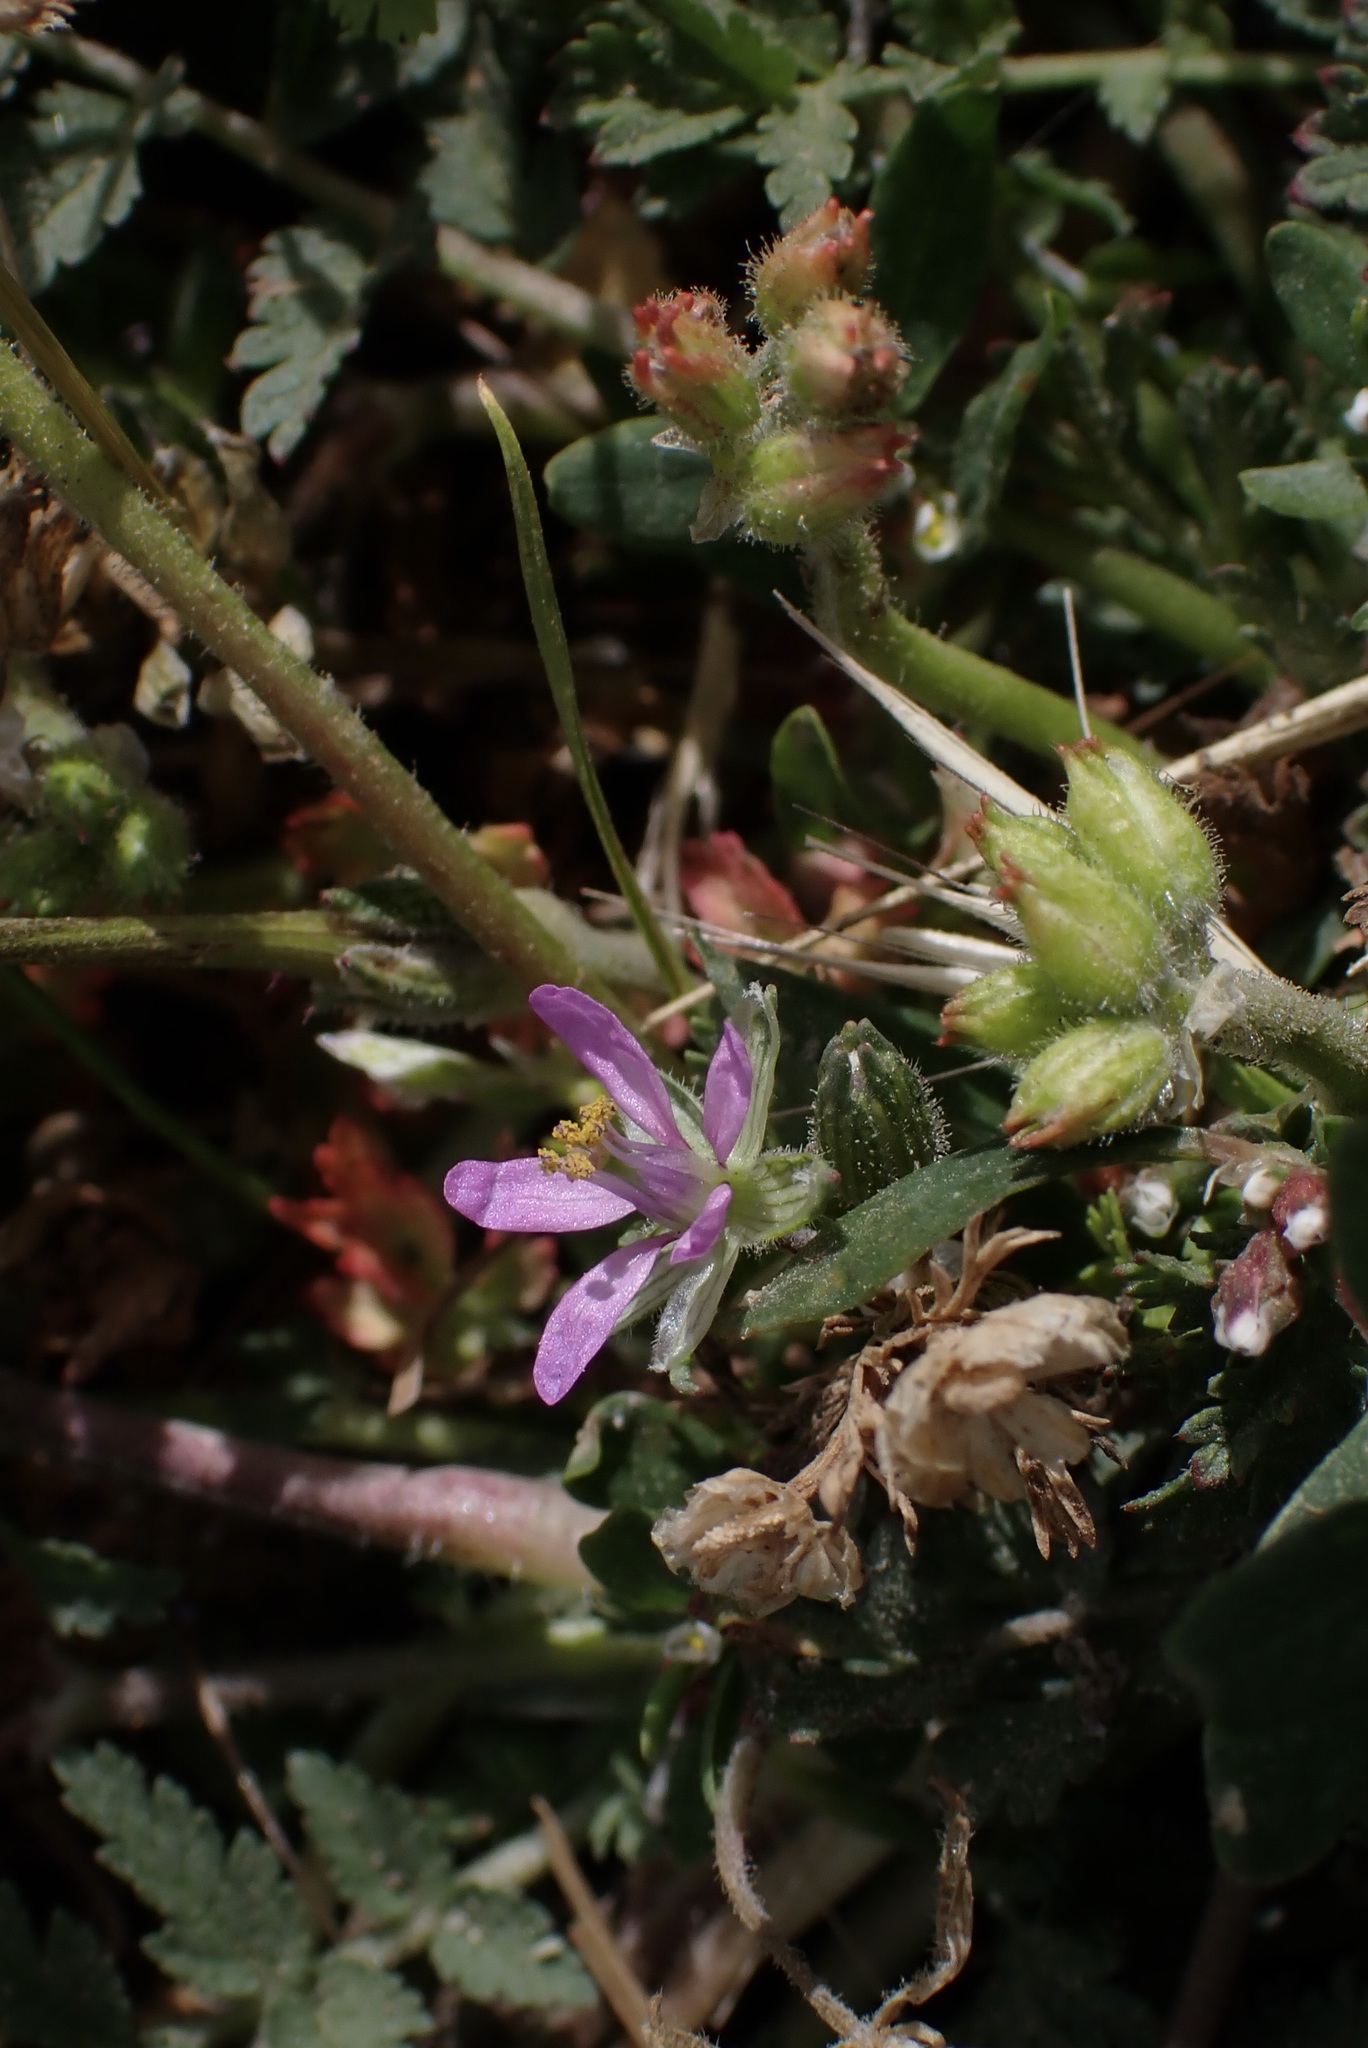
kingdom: Plantae
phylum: Tracheophyta
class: Magnoliopsida
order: Geraniales
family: Geraniaceae
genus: Erodium
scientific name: Erodium moschatum
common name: Musk stork's-bill
